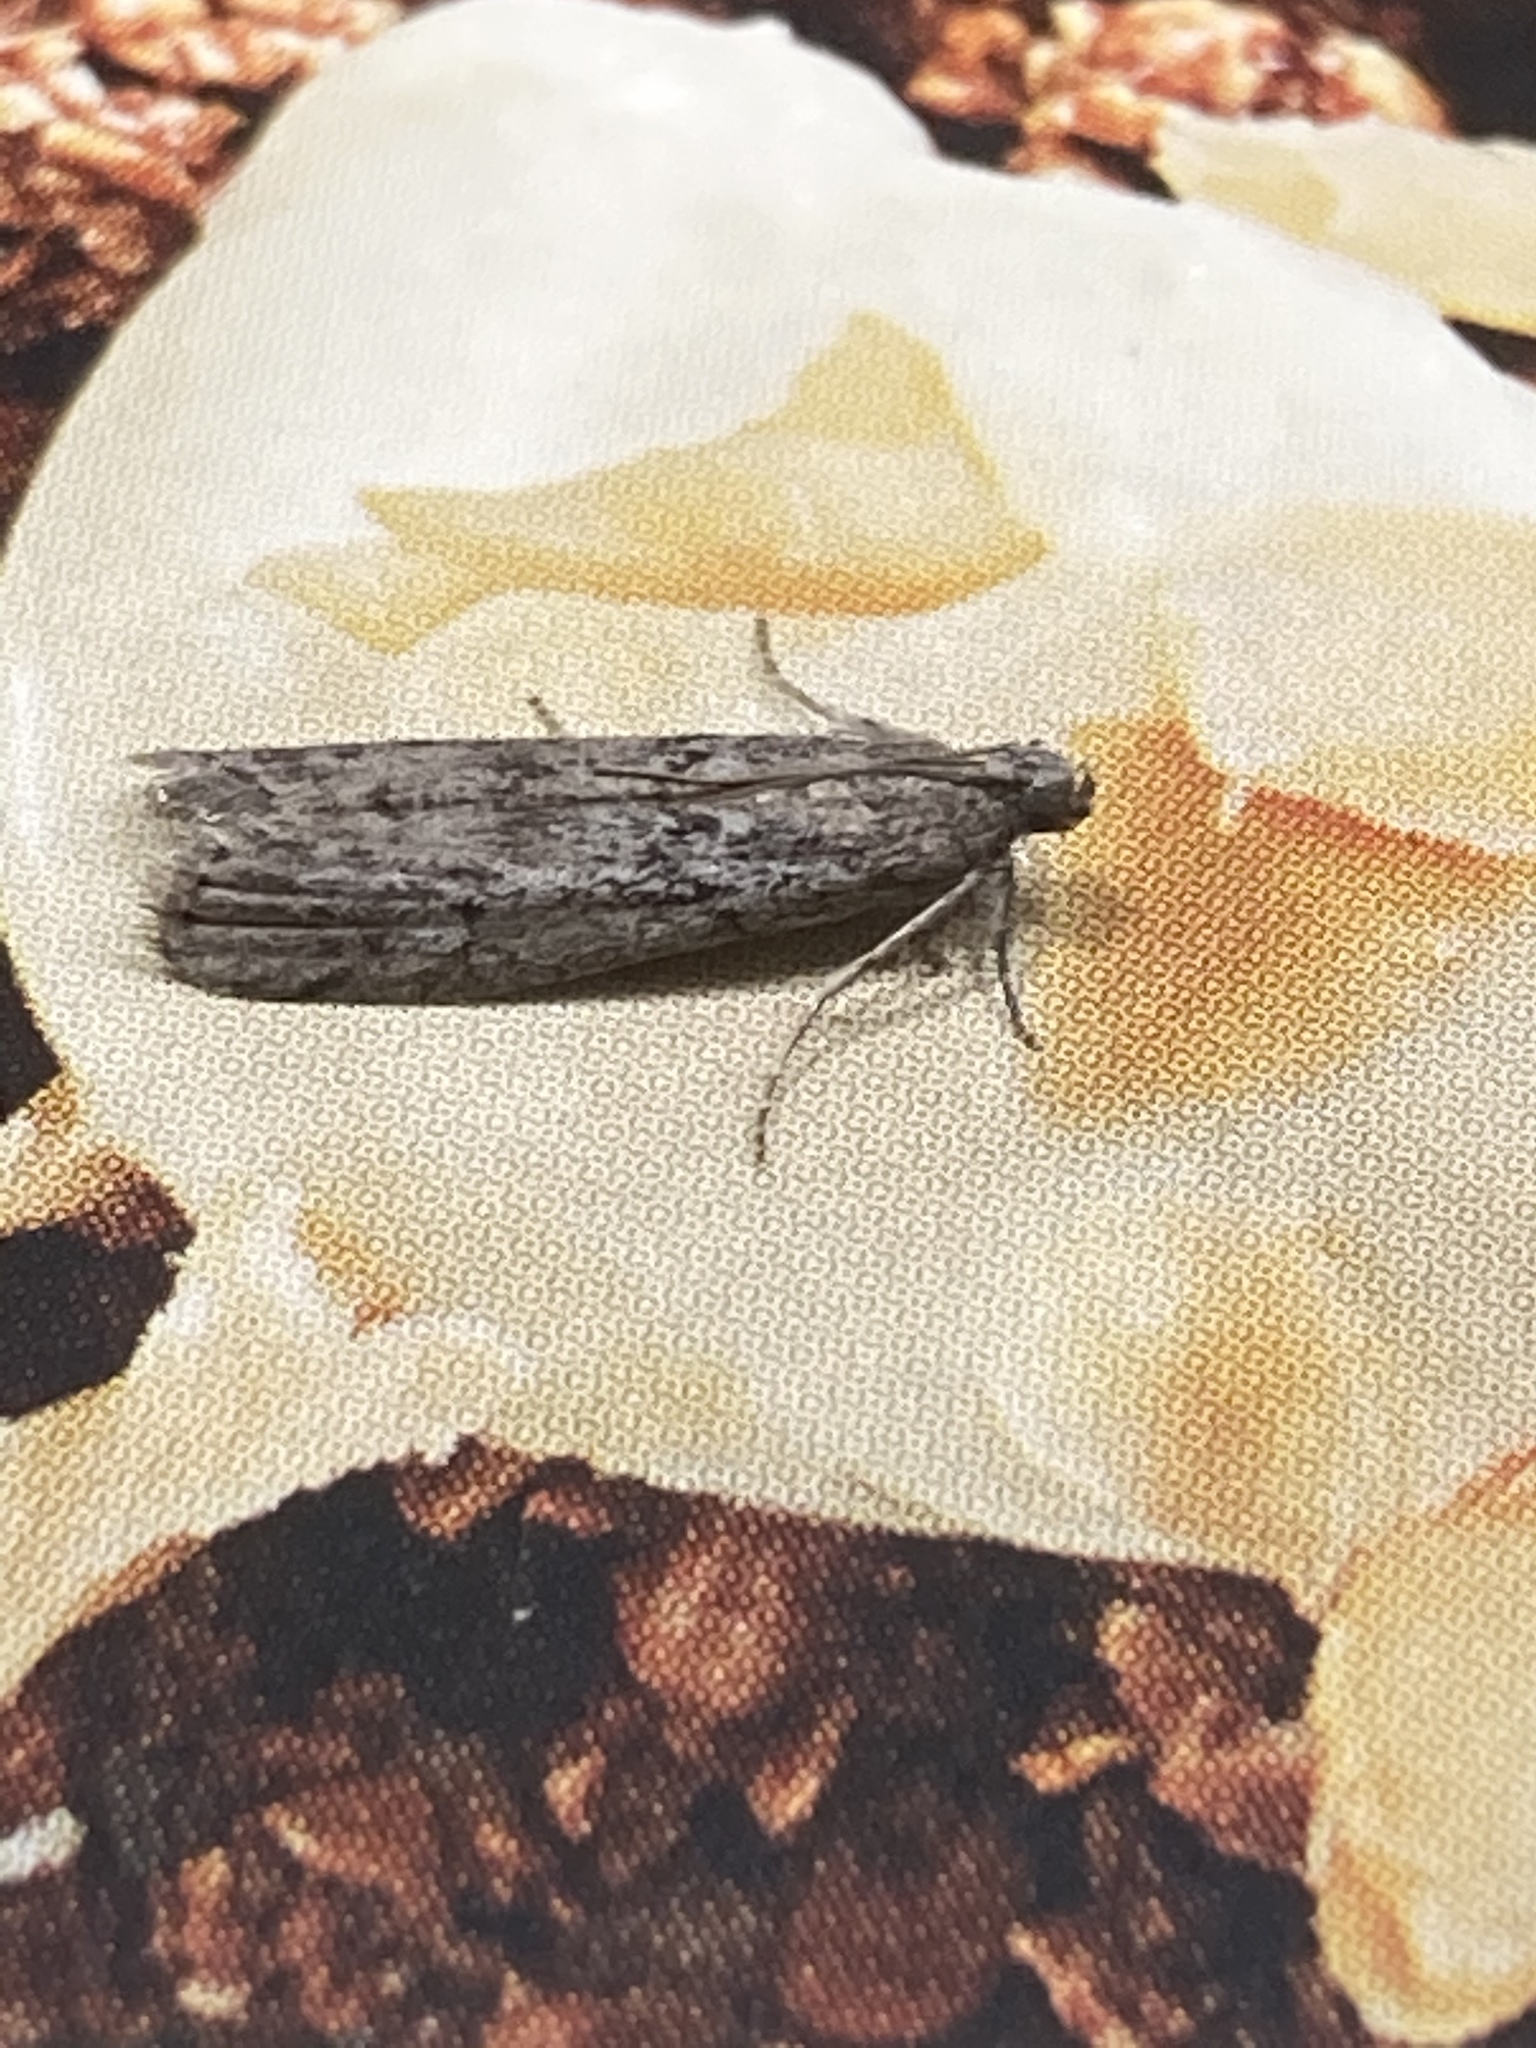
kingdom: Animalia
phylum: Arthropoda
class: Insecta
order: Lepidoptera
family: Pyralidae
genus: Ephestia
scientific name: Ephestia kuehniella
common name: Mediterranean flour moth
